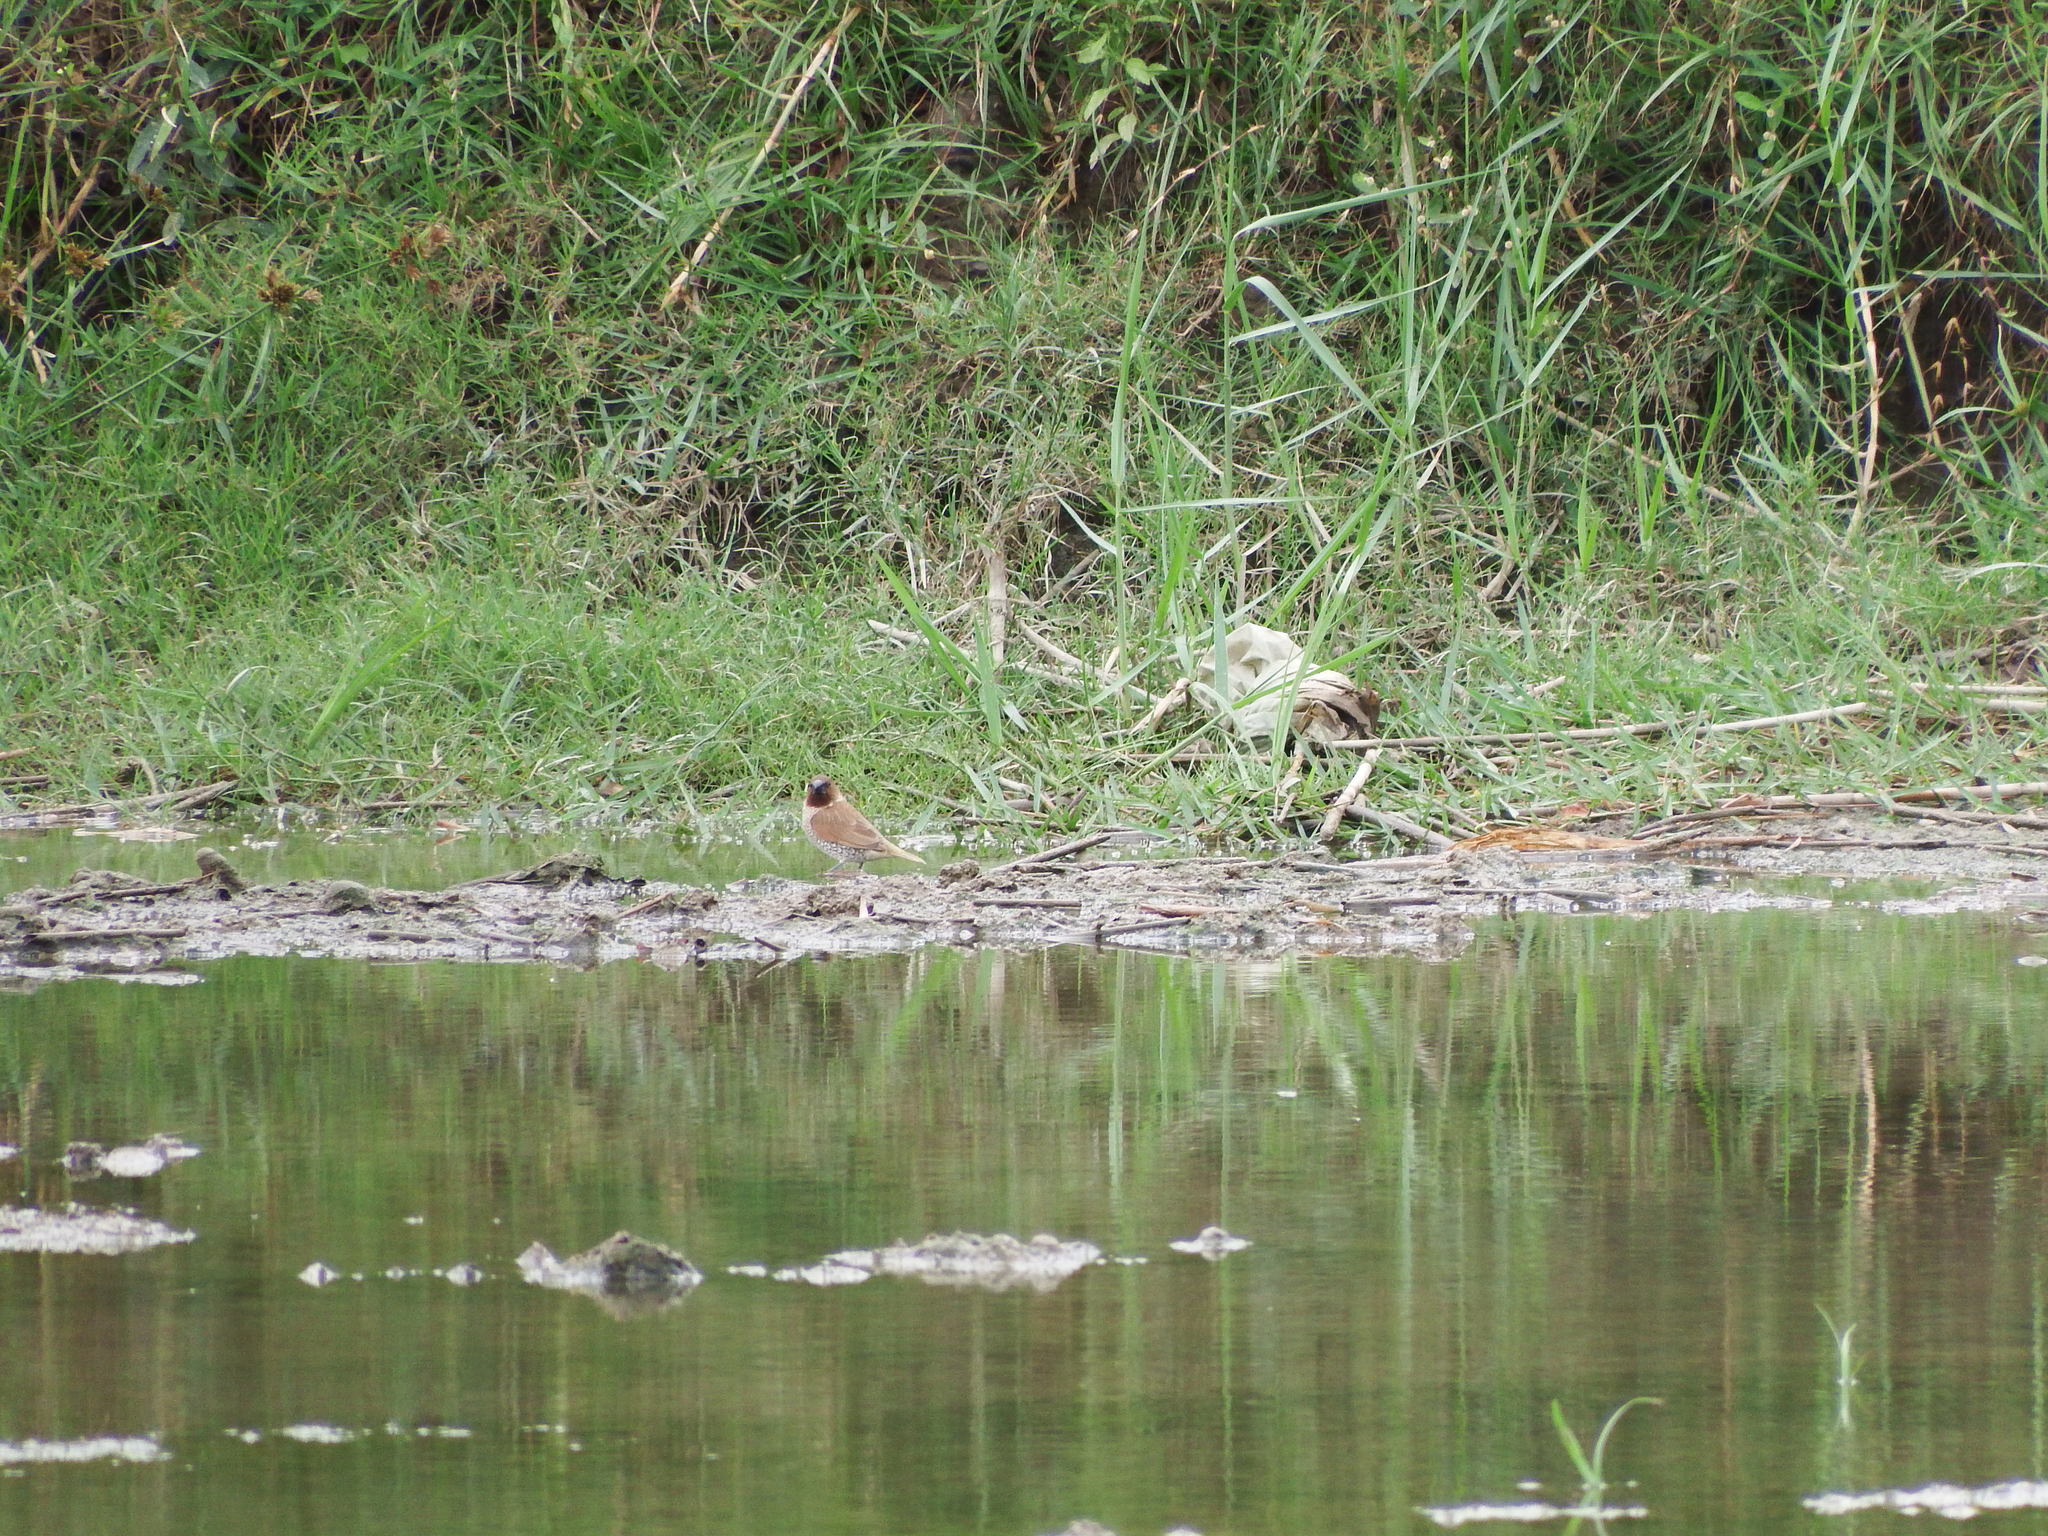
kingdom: Animalia
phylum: Chordata
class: Aves
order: Passeriformes
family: Estrildidae
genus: Lonchura
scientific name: Lonchura punctulata
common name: Scaly-breasted munia
